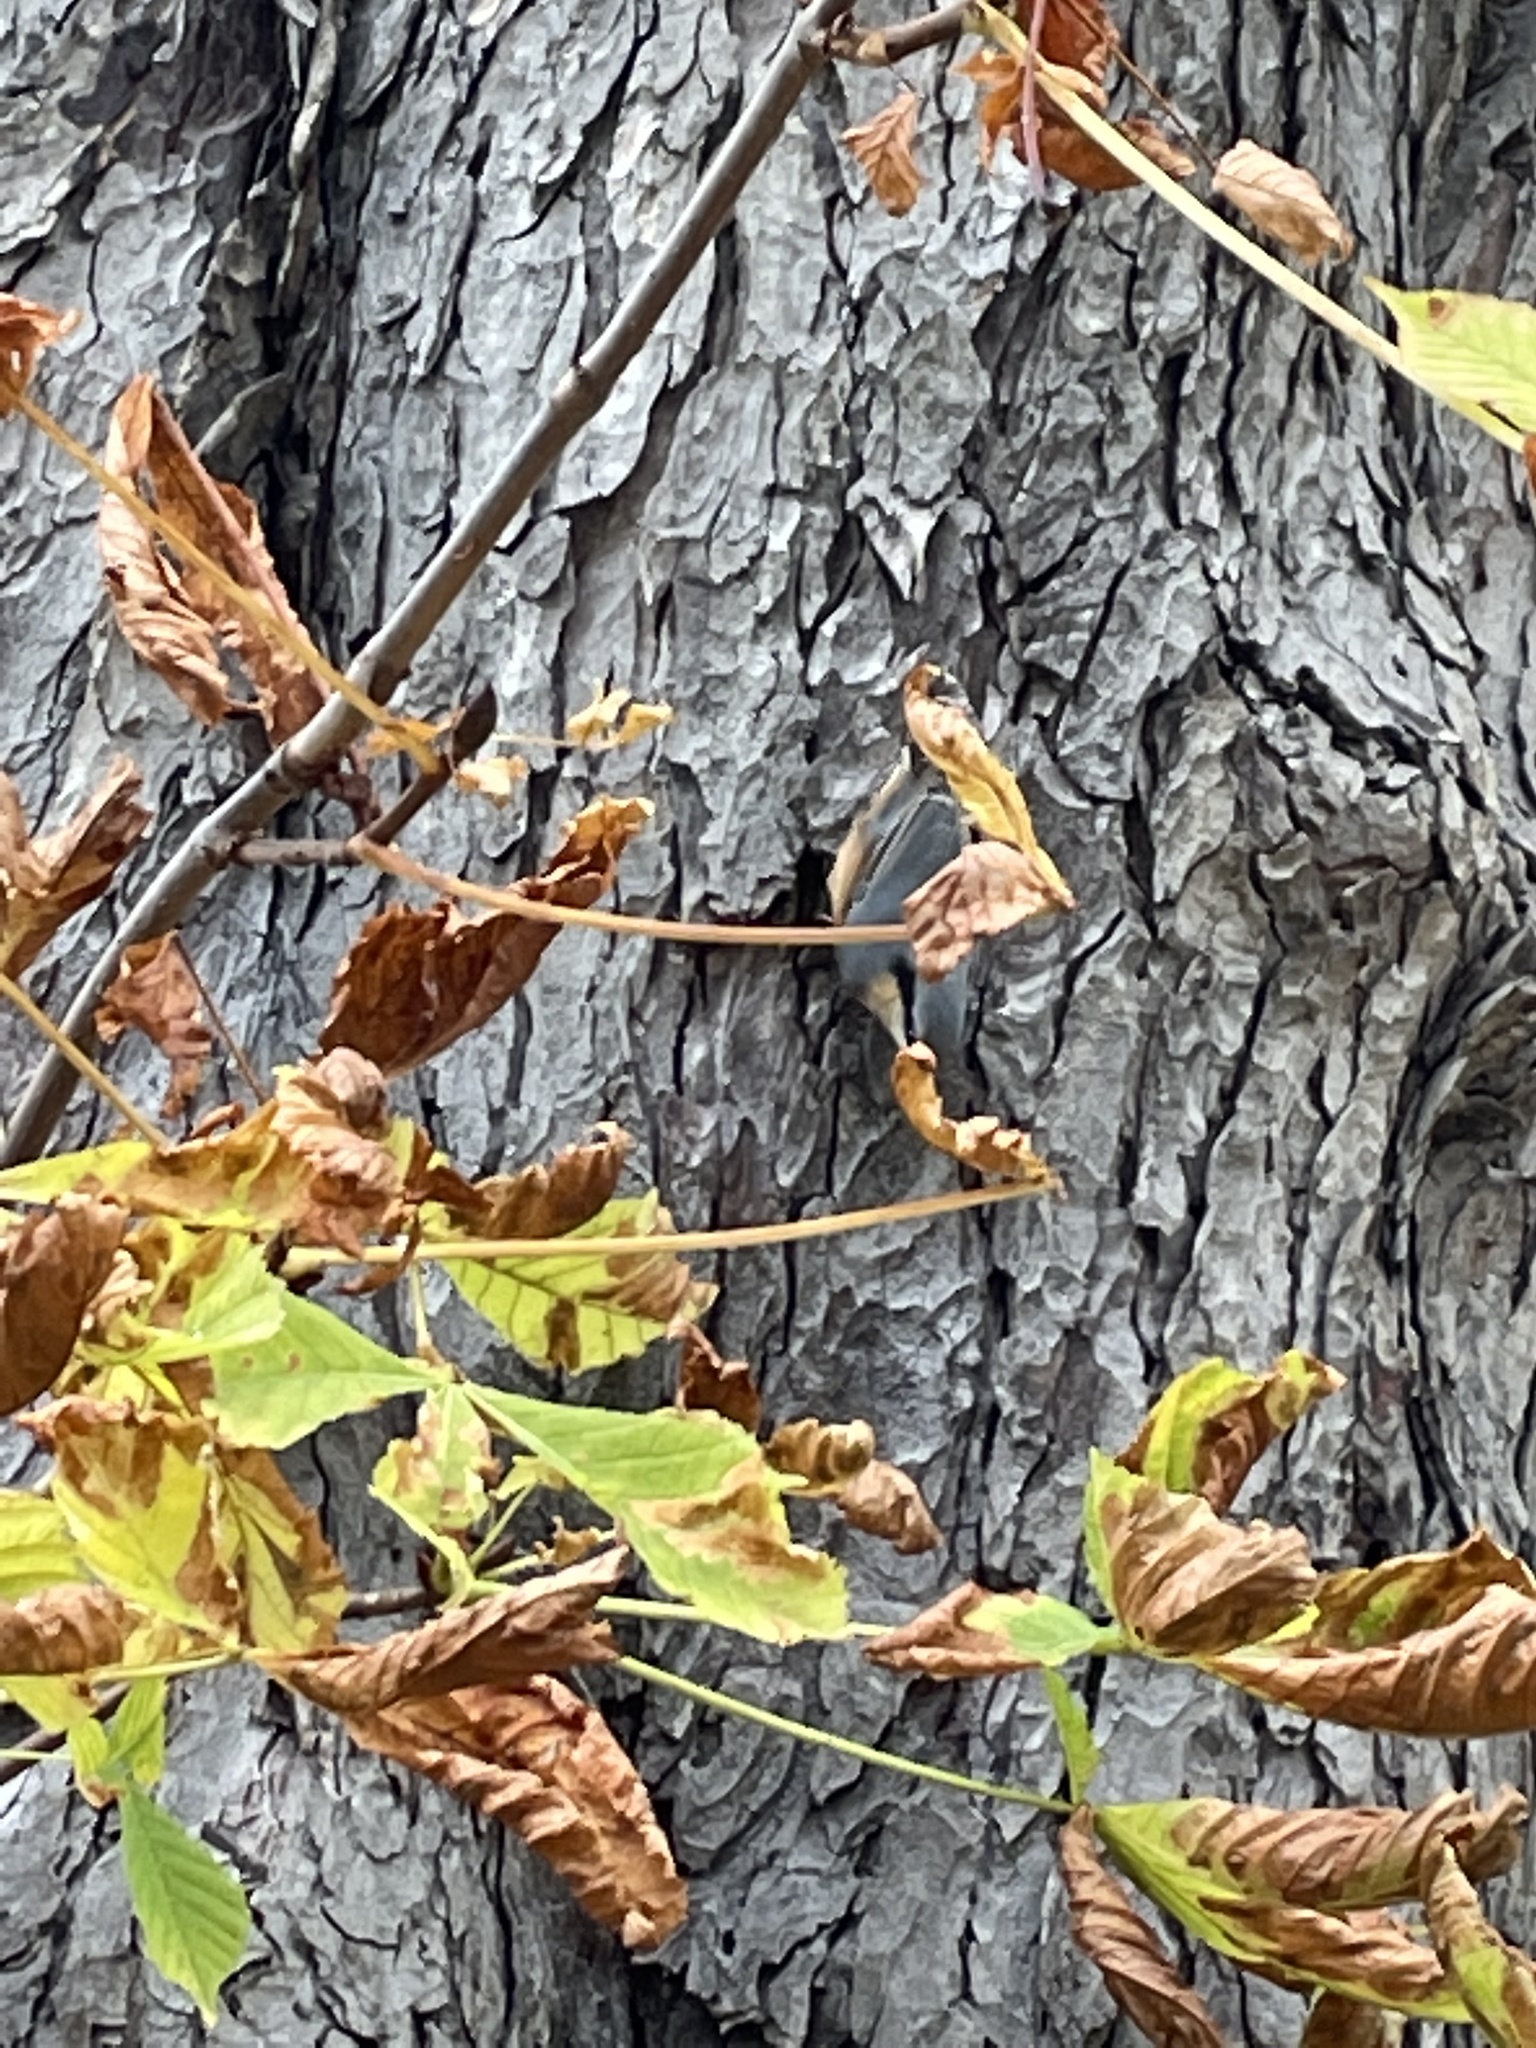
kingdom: Animalia
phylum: Chordata
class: Aves
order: Passeriformes
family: Sittidae
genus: Sitta
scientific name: Sitta europaea
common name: Eurasian nuthatch
